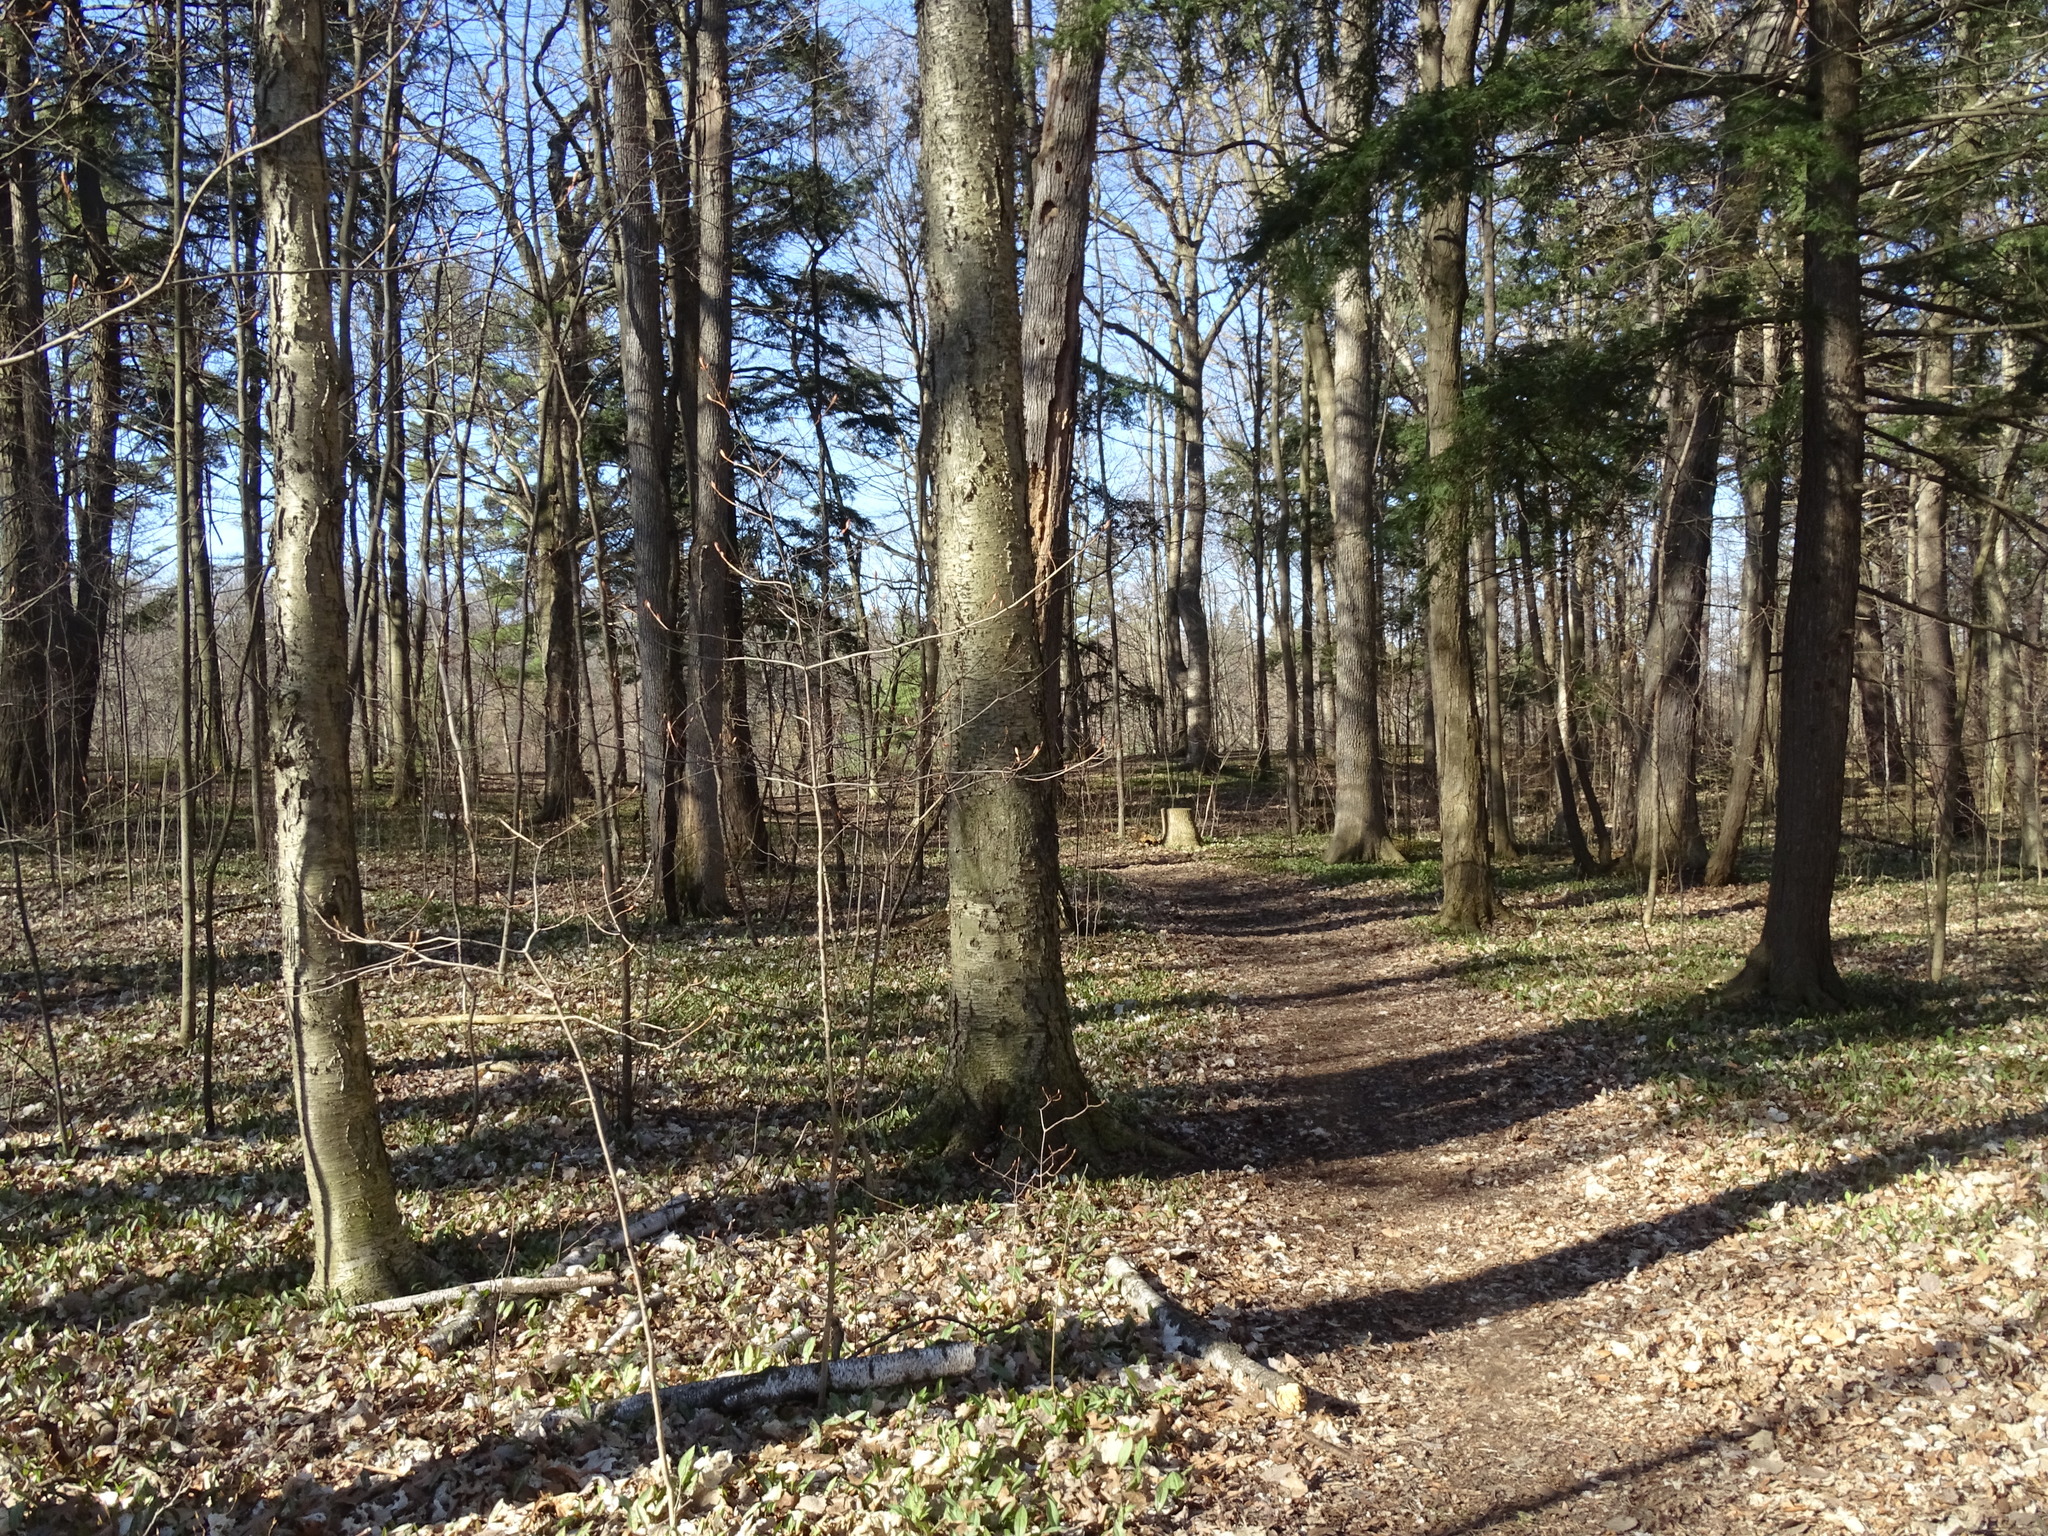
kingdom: Plantae
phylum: Tracheophyta
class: Magnoliopsida
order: Fagales
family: Betulaceae
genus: Betula
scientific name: Betula alleghaniensis
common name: Yellow birch
